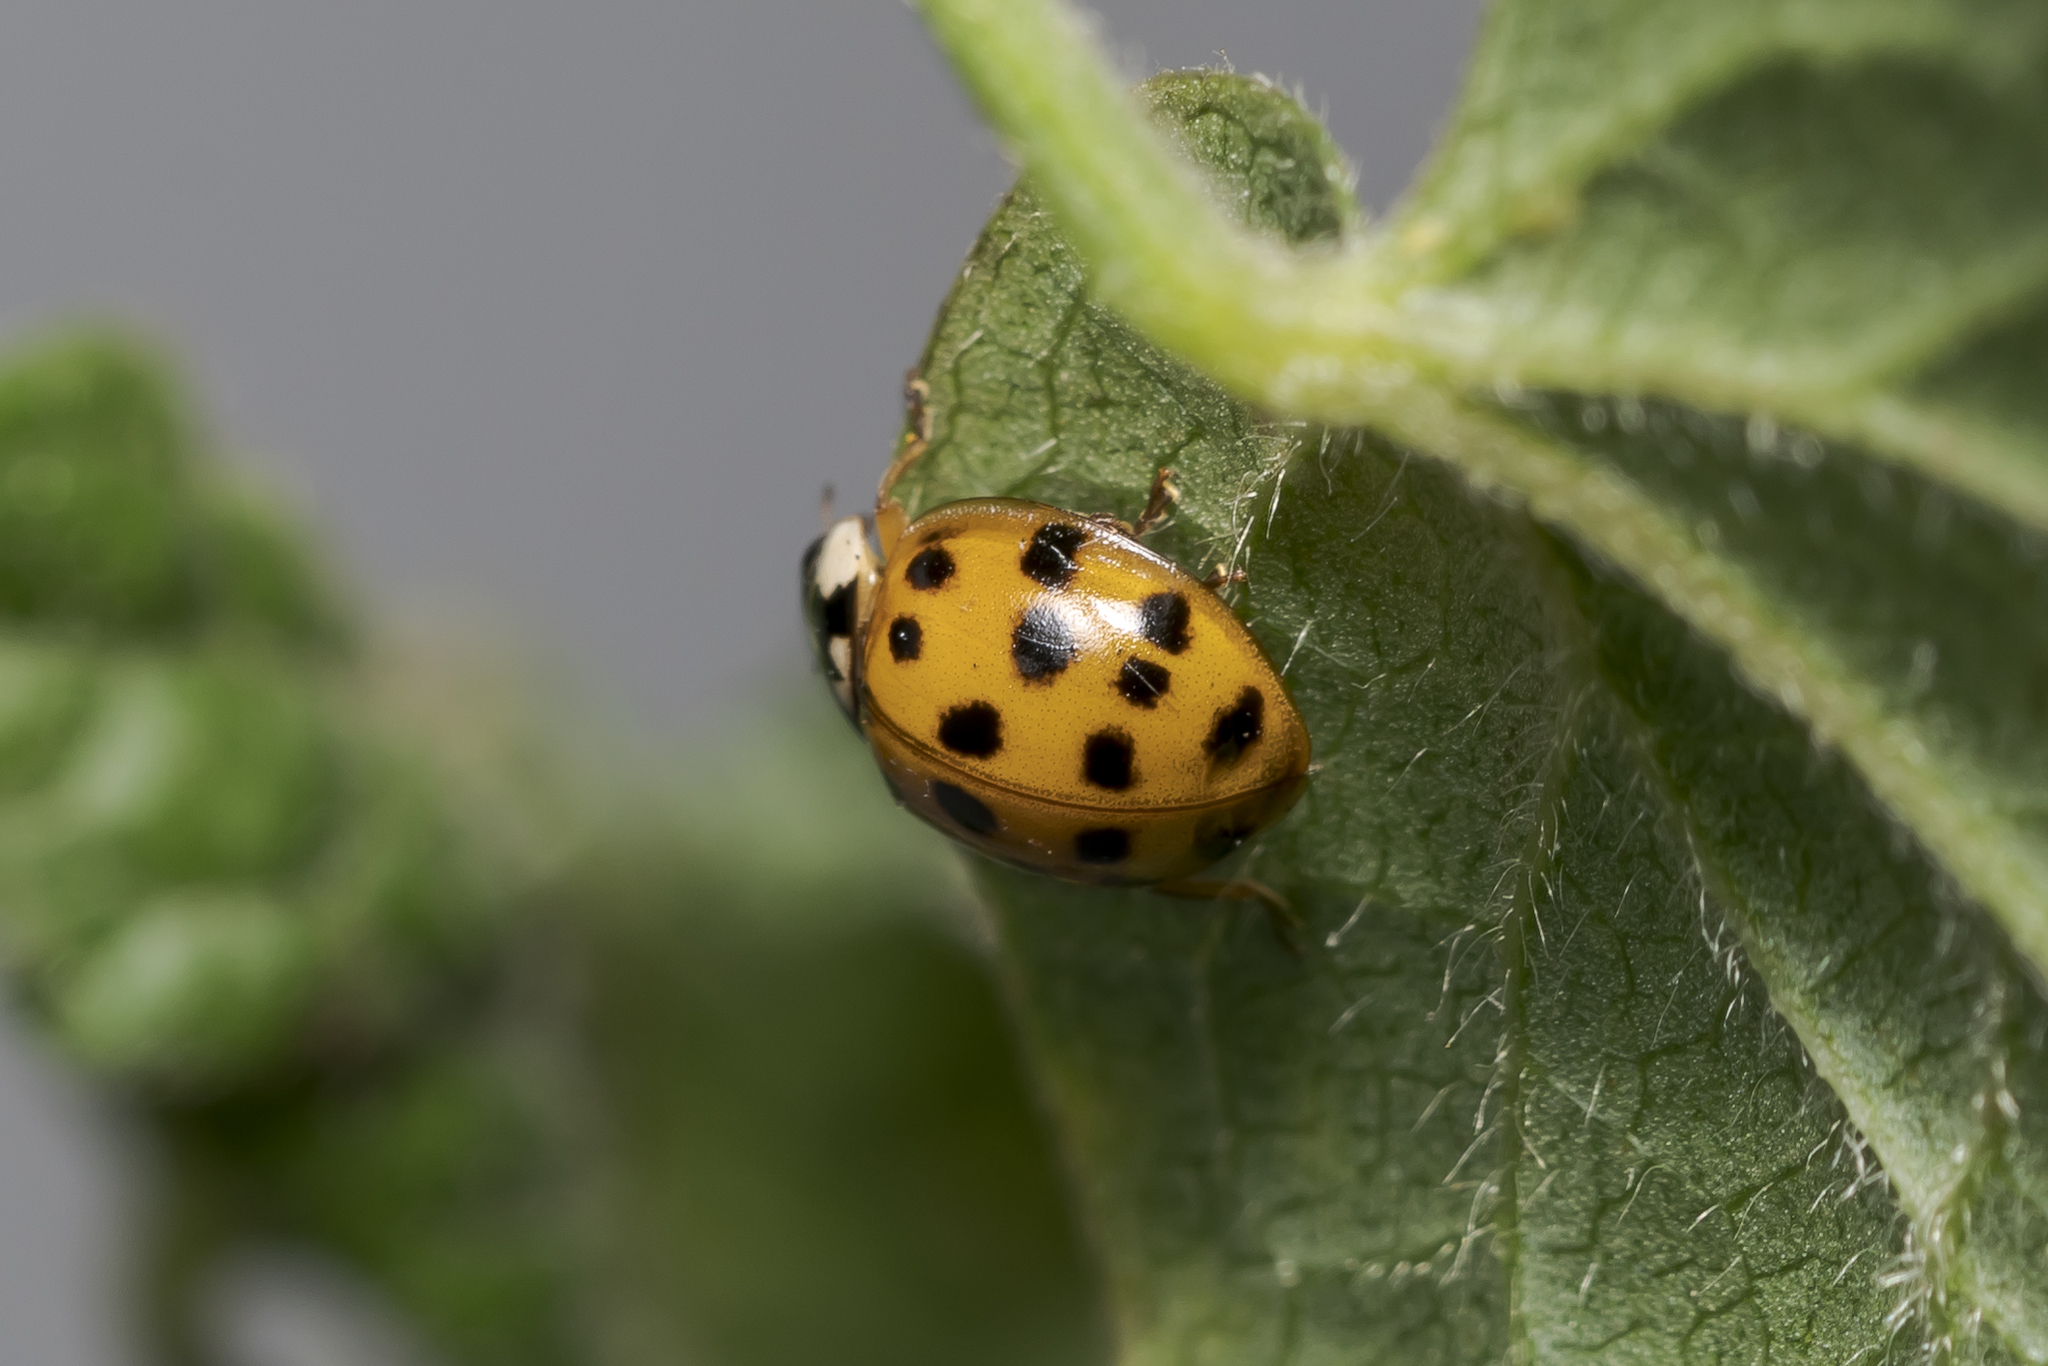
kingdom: Animalia
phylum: Arthropoda
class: Insecta
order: Coleoptera
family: Coccinellidae
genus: Harmonia
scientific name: Harmonia axyridis
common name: Harlequin ladybird
